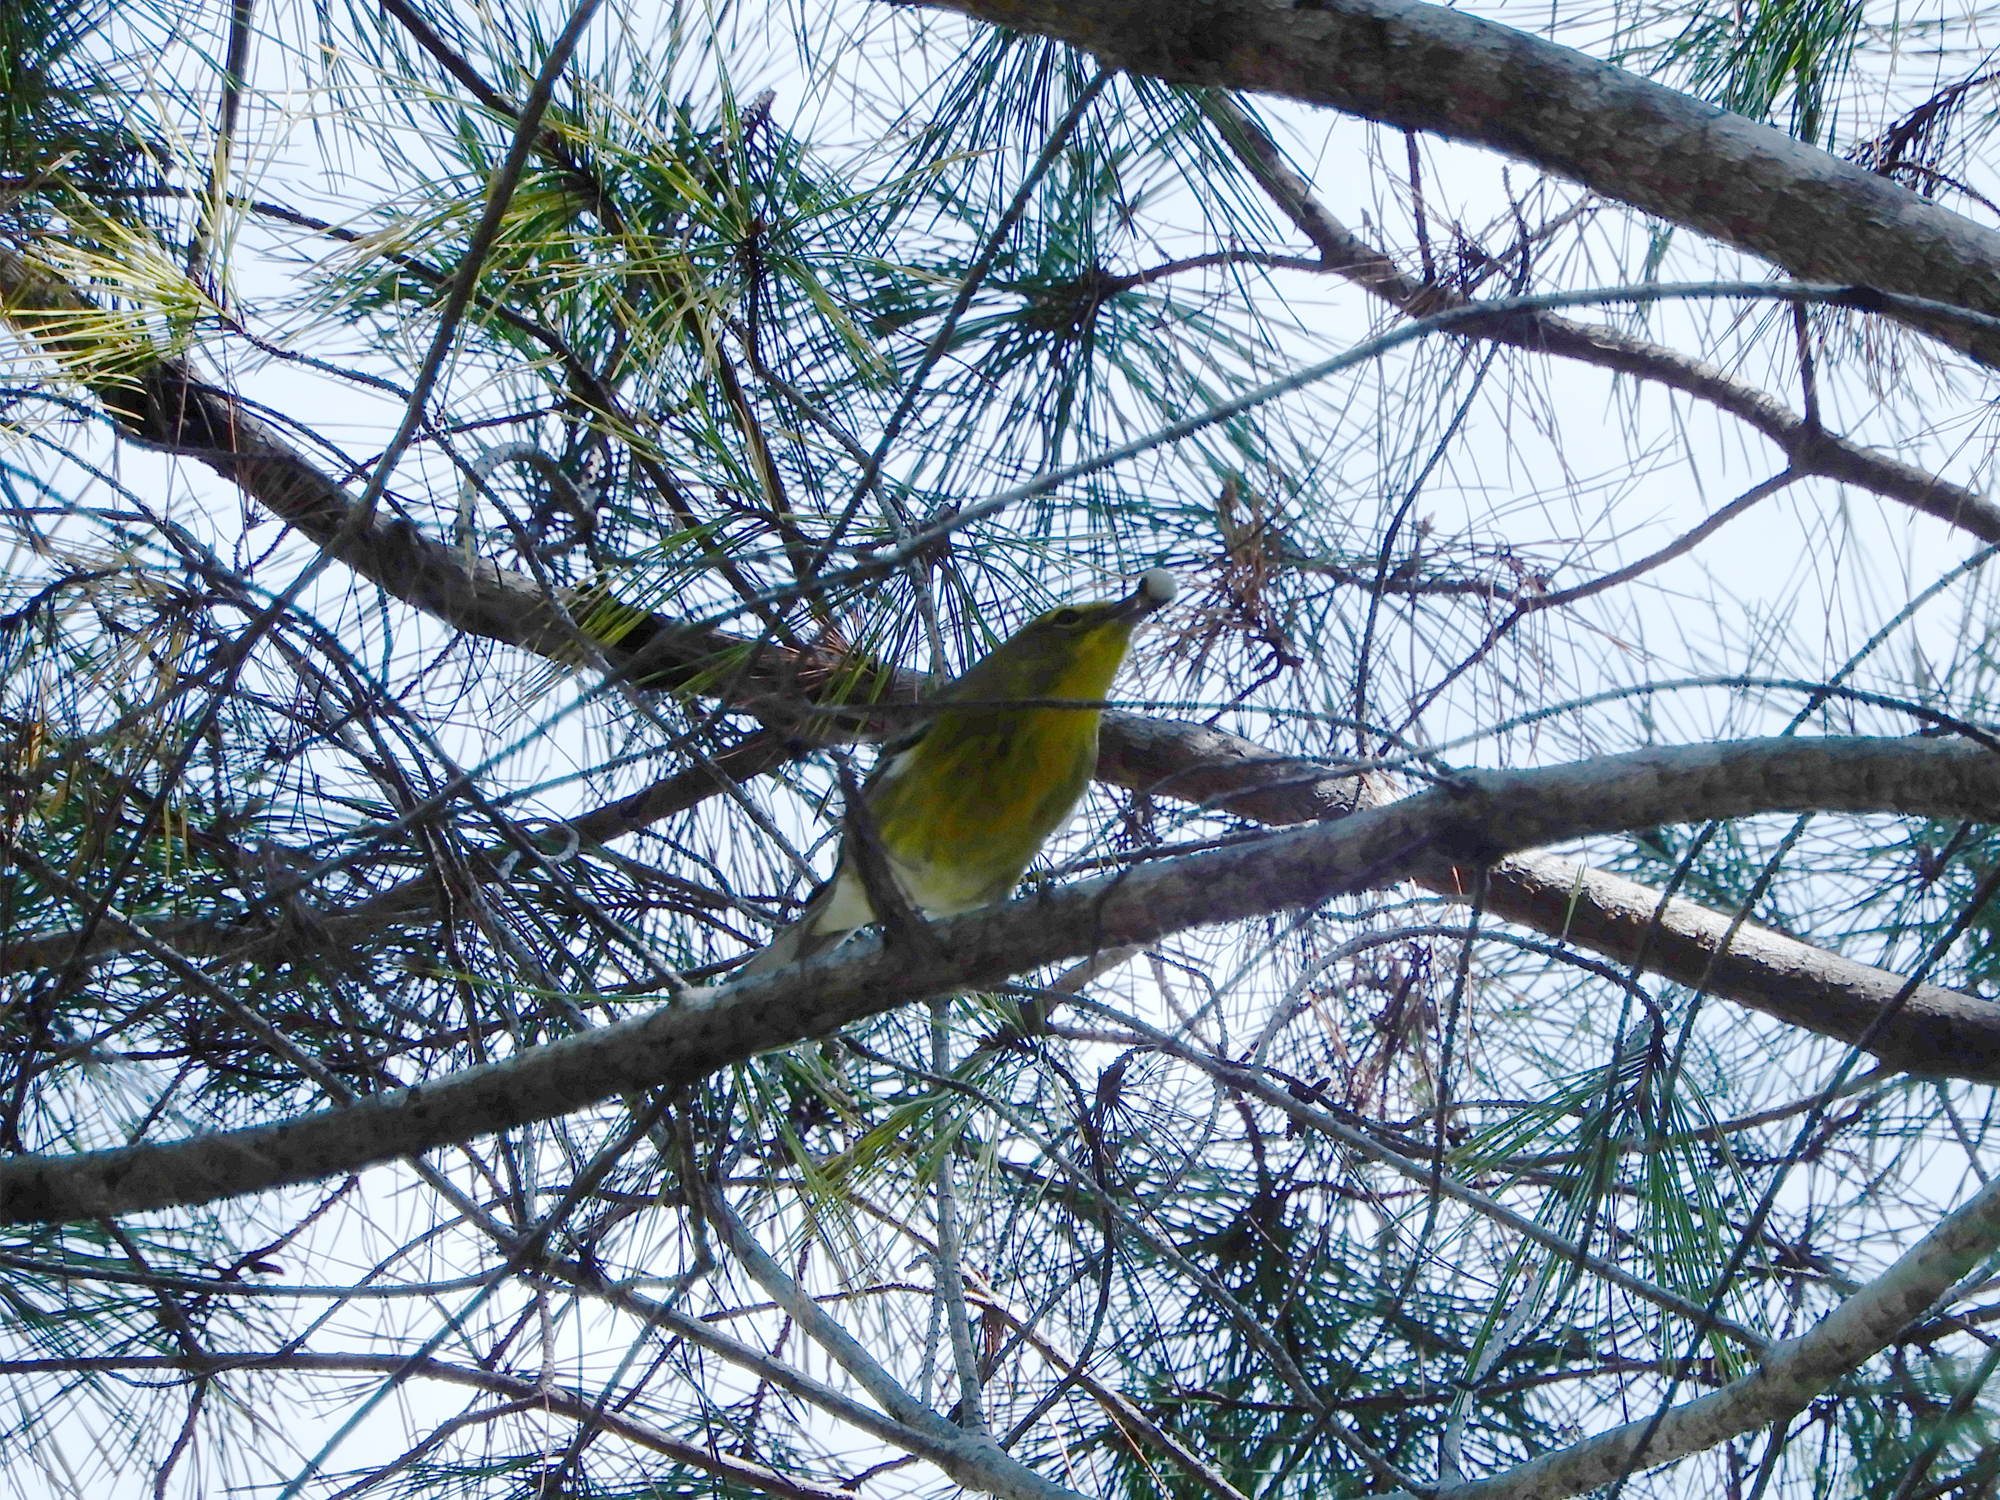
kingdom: Animalia
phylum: Chordata
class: Aves
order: Passeriformes
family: Parulidae
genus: Setophaga
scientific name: Setophaga pinus
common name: Pine warbler
